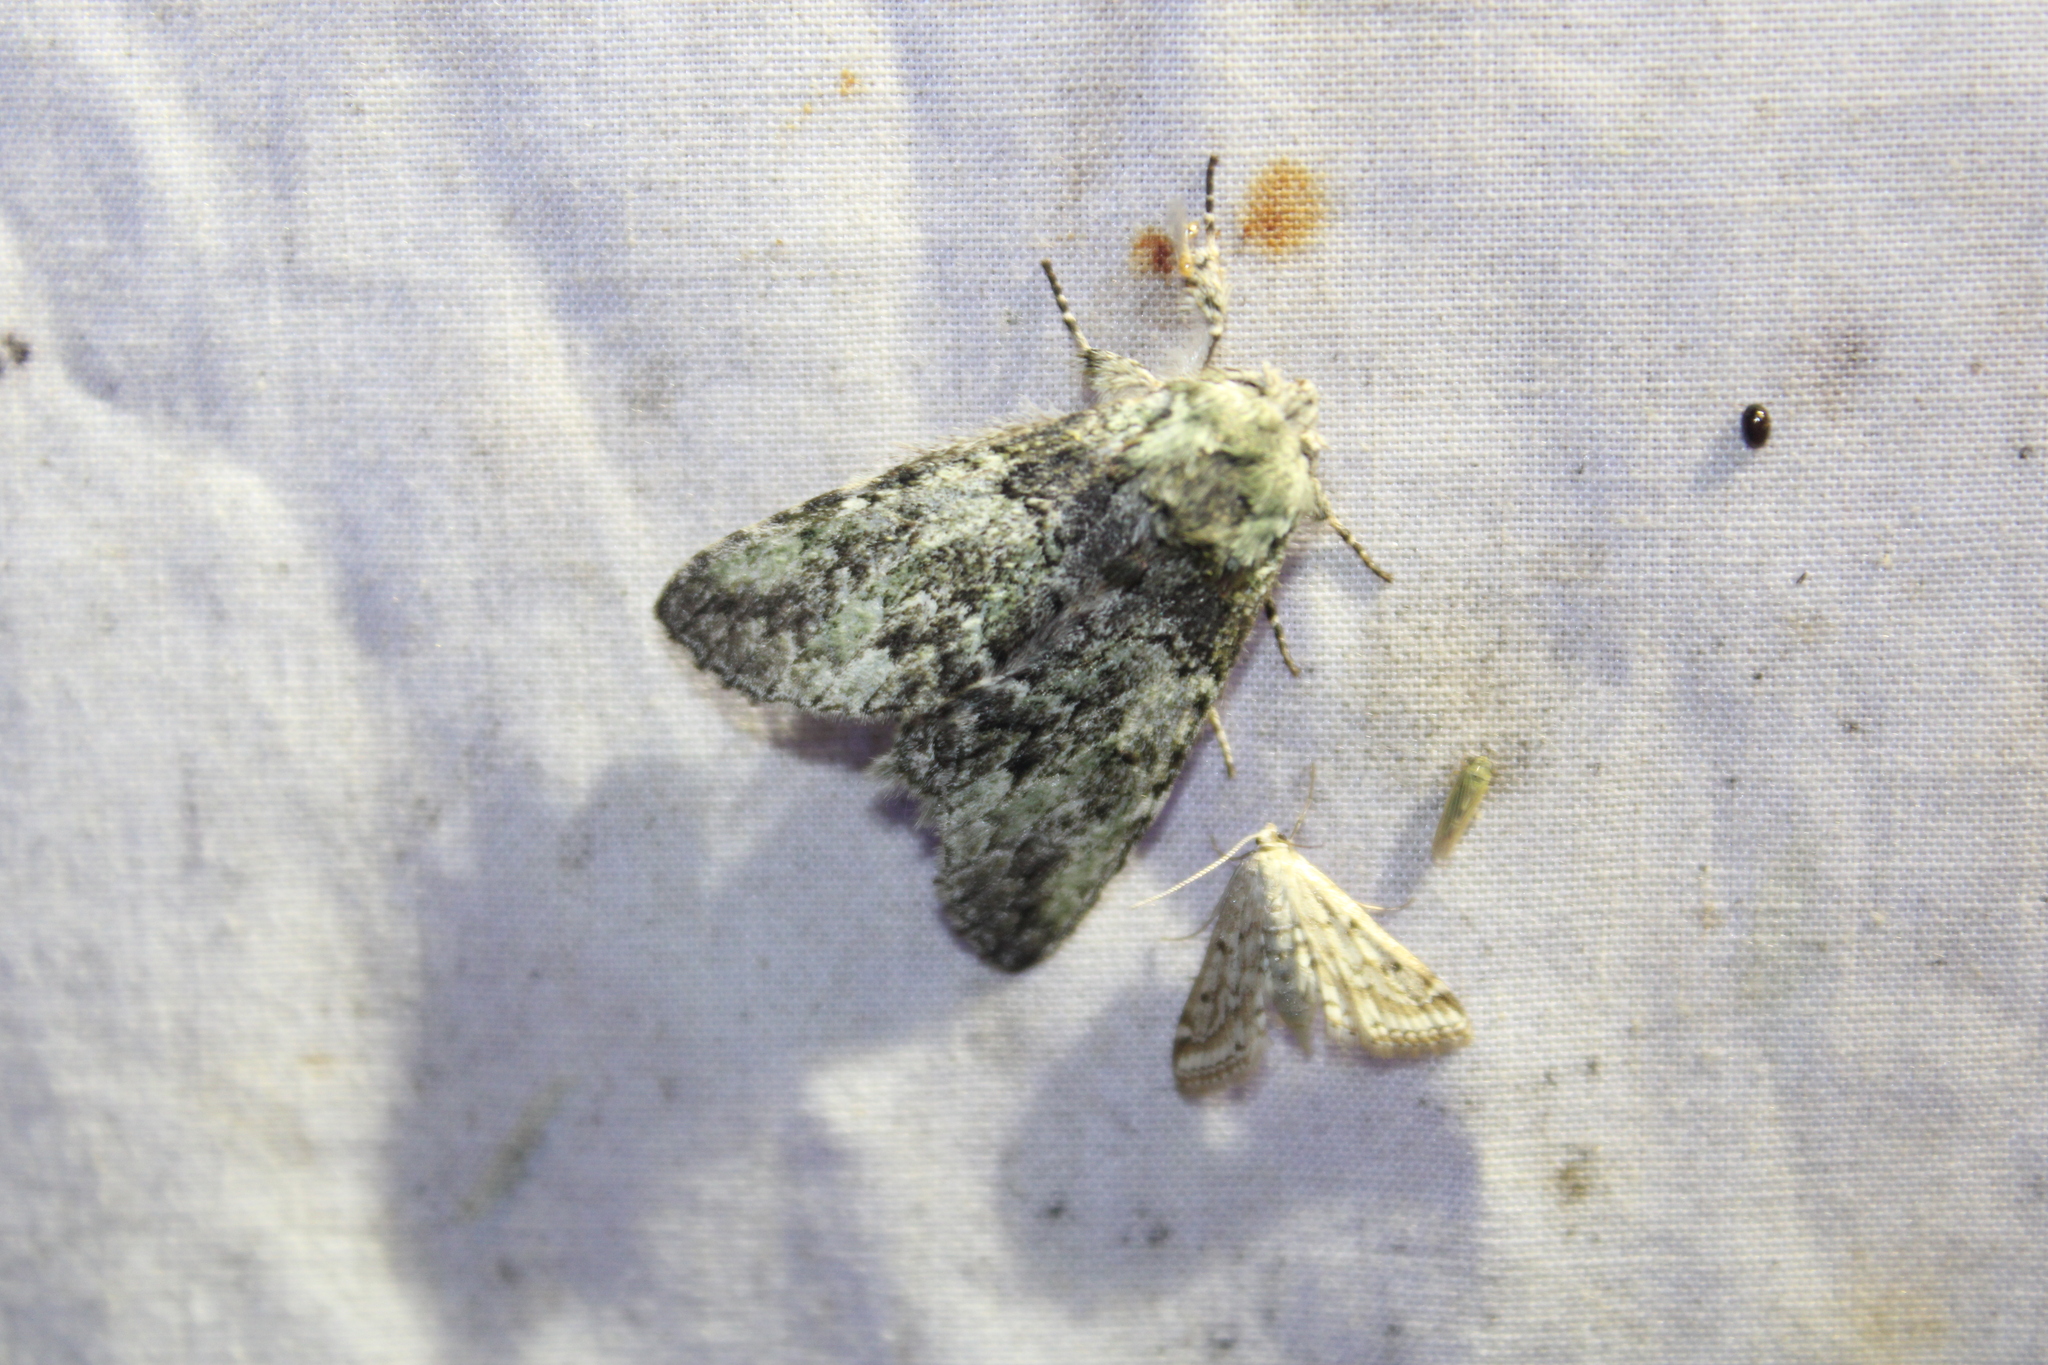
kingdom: Animalia
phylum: Arthropoda
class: Insecta
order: Lepidoptera
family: Notodontidae
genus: Macrurocampa
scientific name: Macrurocampa marthesia
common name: Mottled prominent
